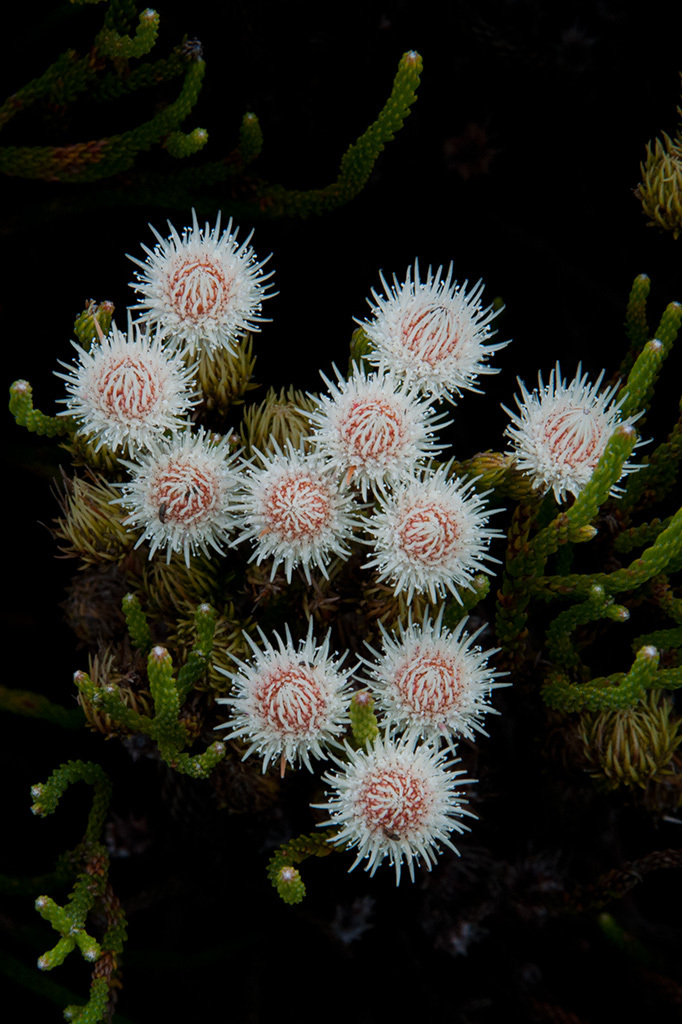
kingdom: Plantae
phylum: Tracheophyta
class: Magnoliopsida
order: Bruniales
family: Bruniaceae
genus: Brunia
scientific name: Brunia paleacea
